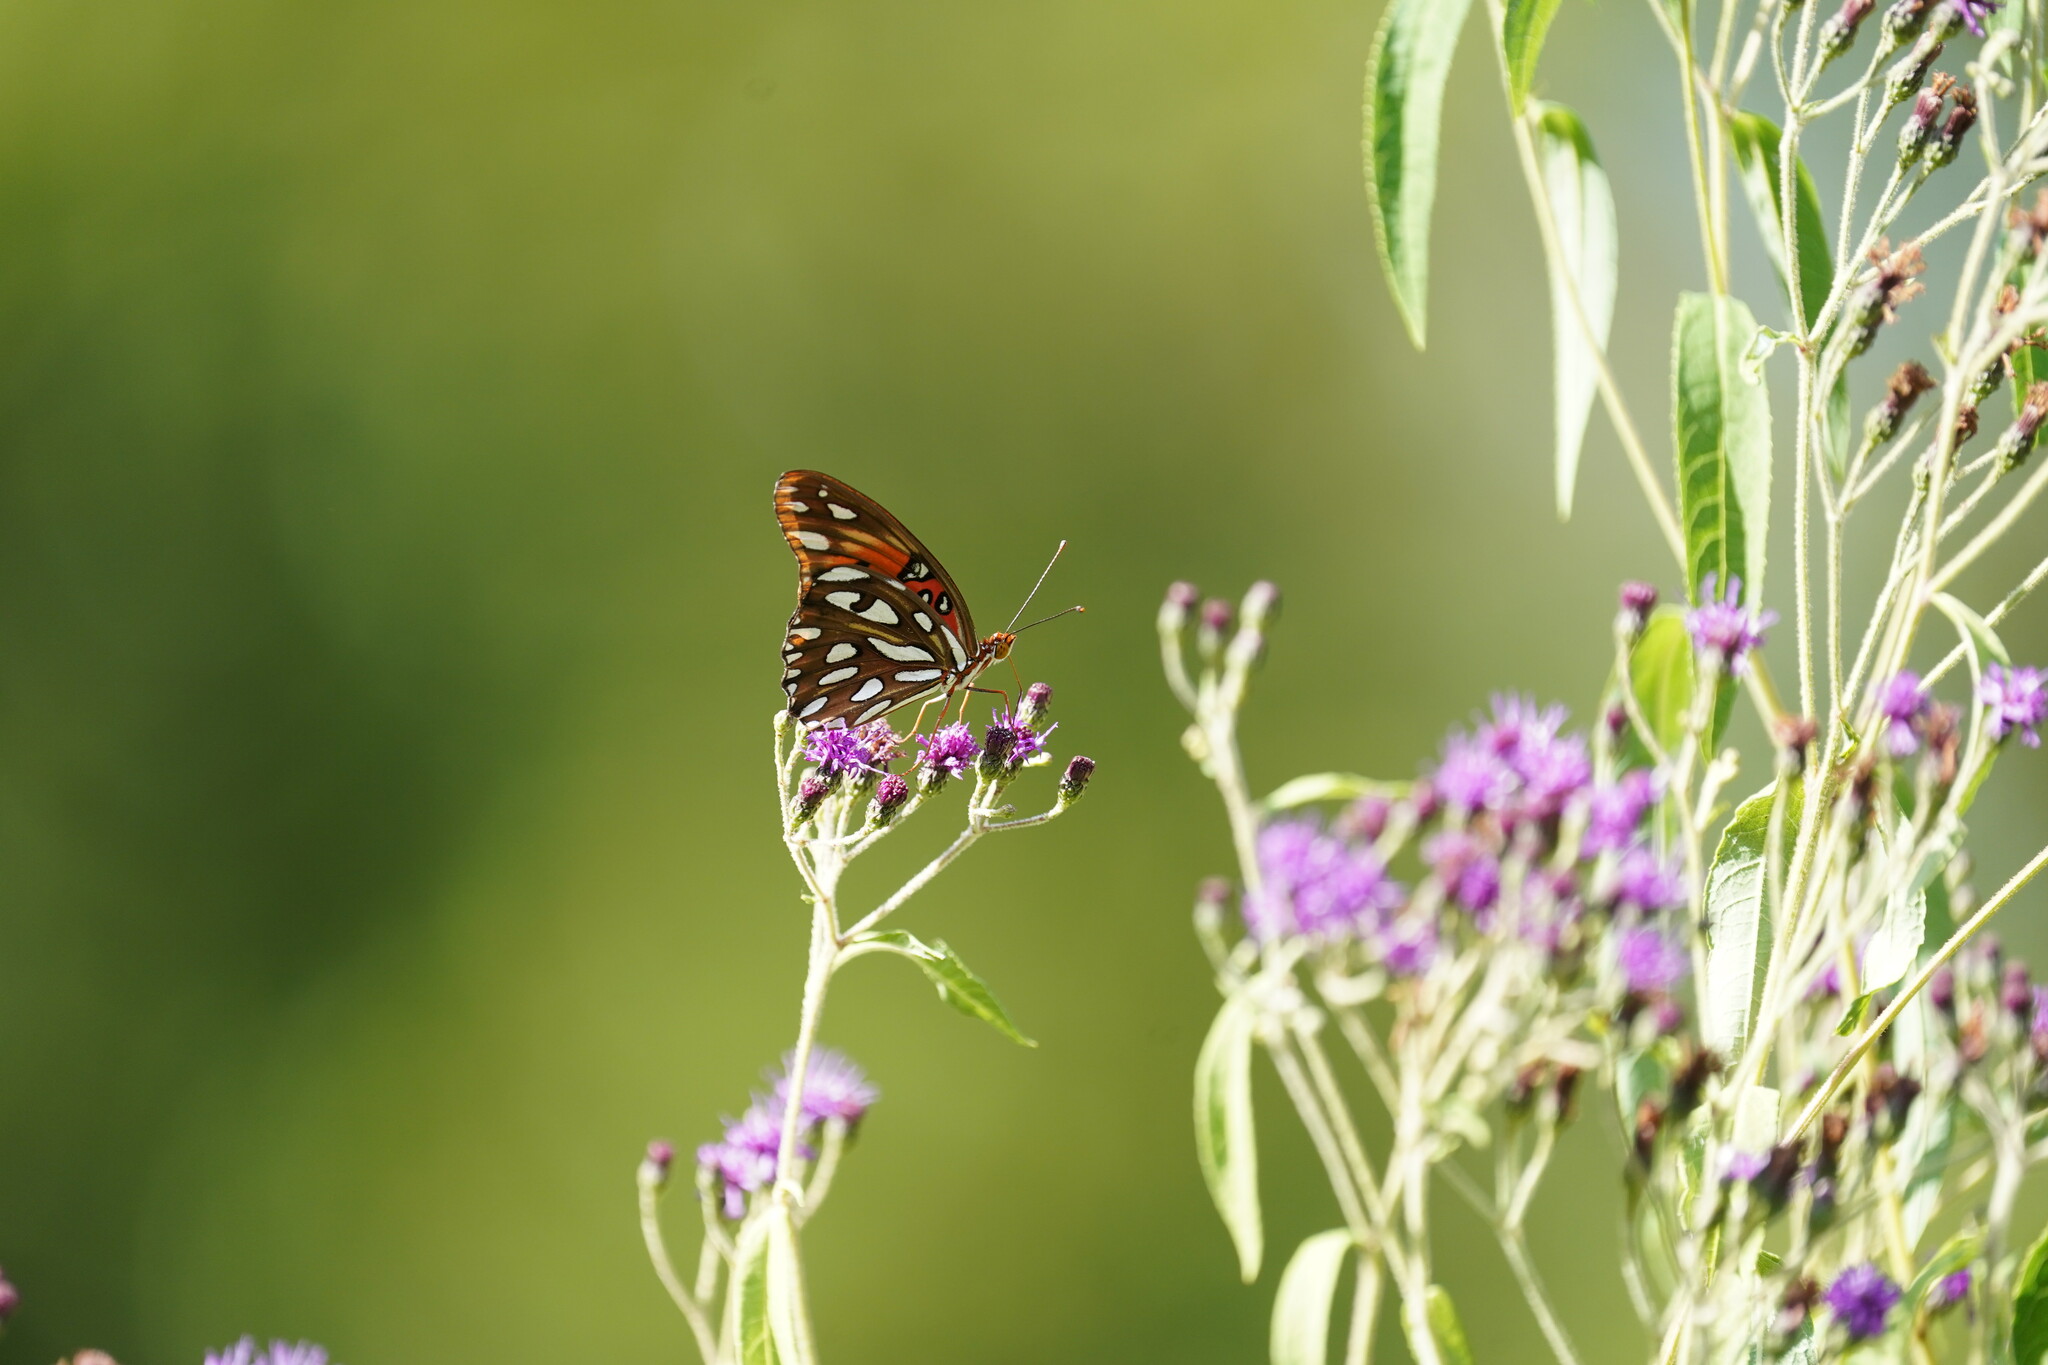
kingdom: Animalia
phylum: Arthropoda
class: Insecta
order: Lepidoptera
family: Nymphalidae
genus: Dione
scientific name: Dione vanillae
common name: Gulf fritillary
